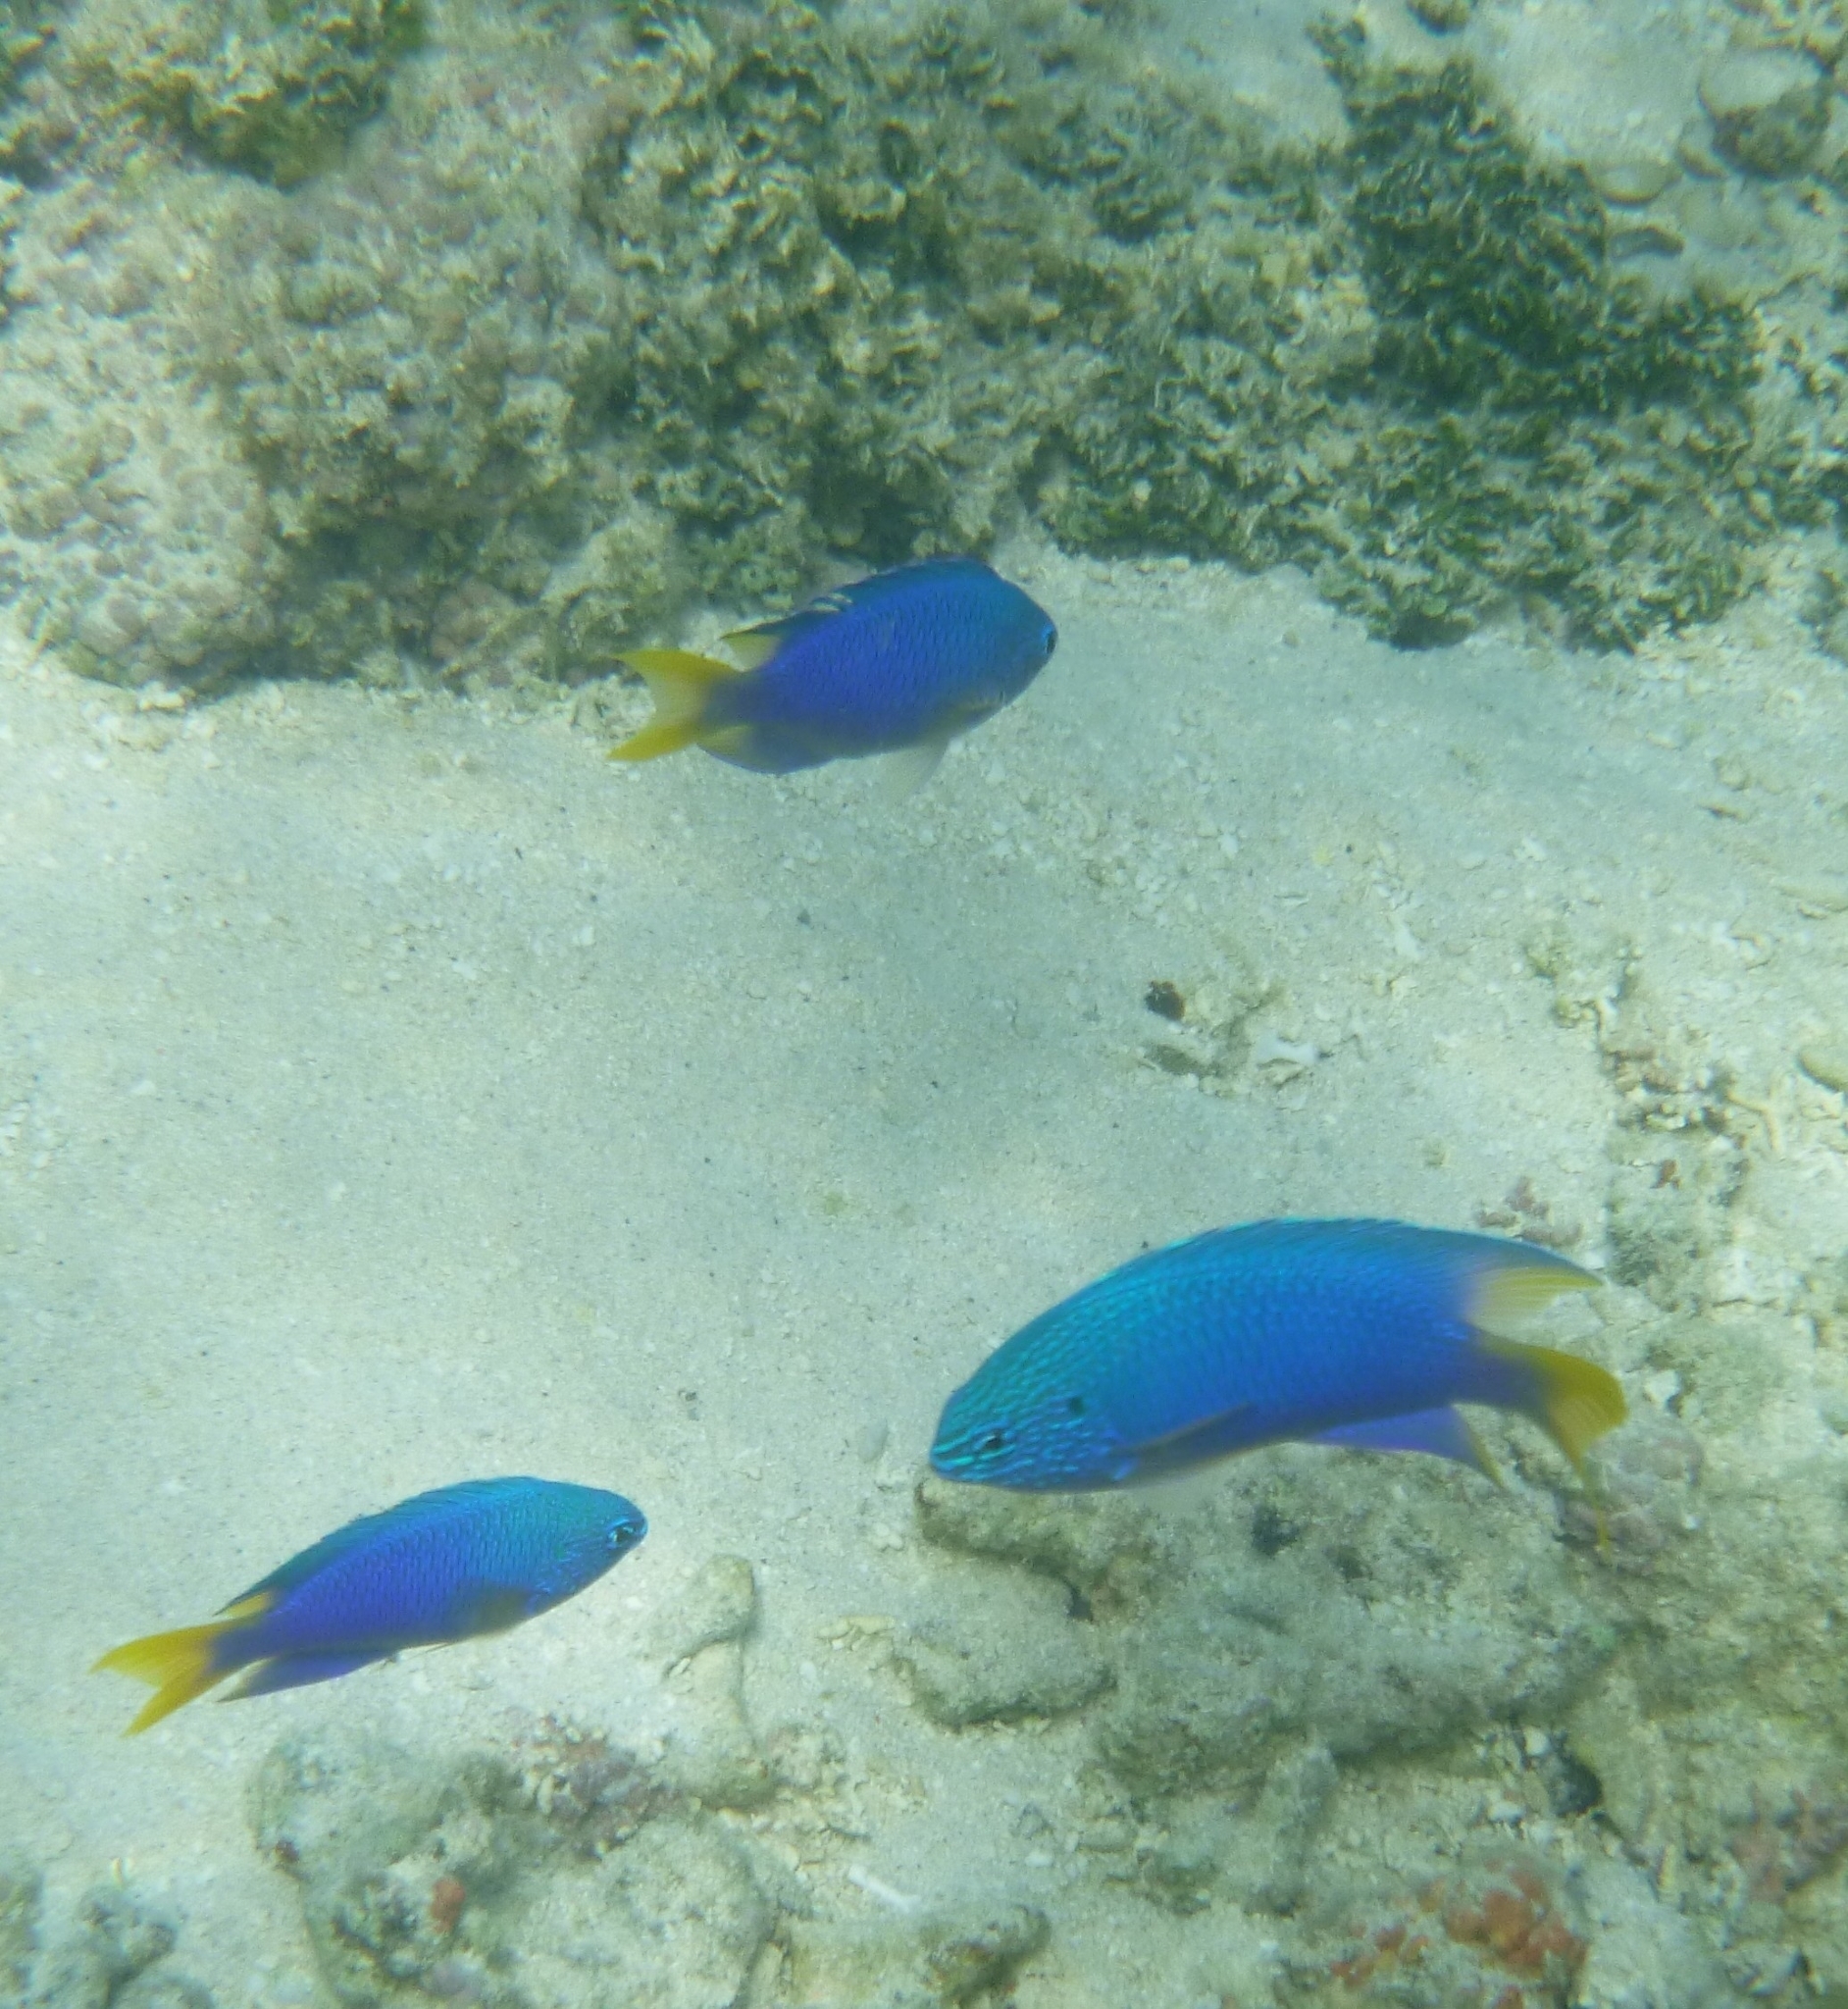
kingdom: Animalia
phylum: Chordata
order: Perciformes
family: Pomacentridae
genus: Pomacentrus
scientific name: Pomacentrus pavo
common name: Sapphire damsel
